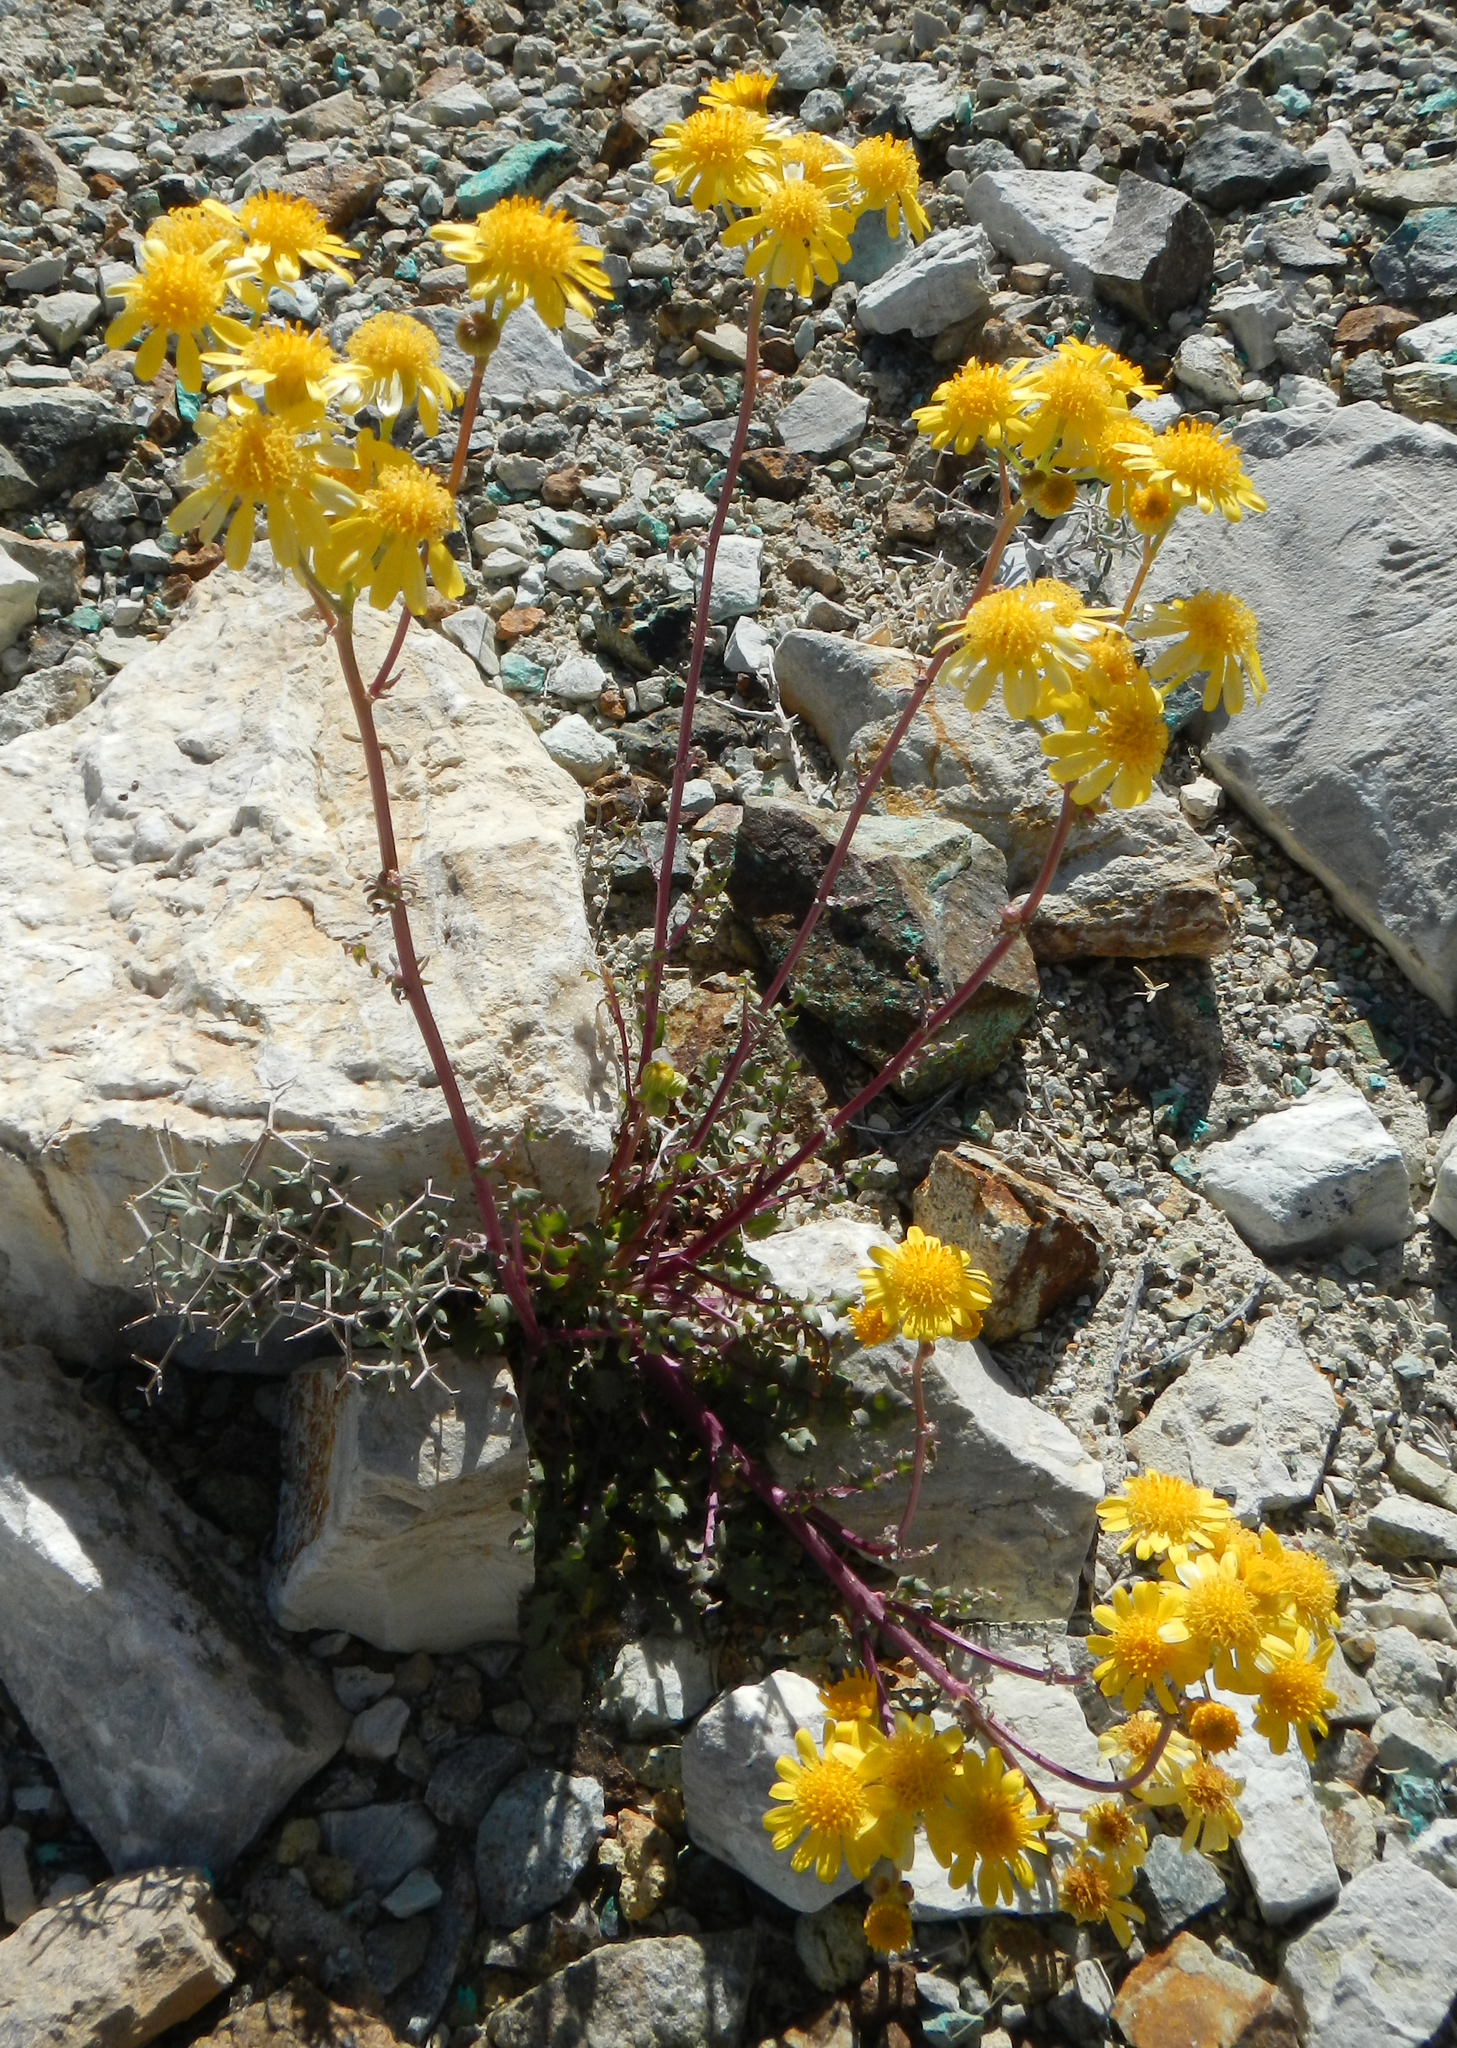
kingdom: Plantae
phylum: Tracheophyta
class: Magnoliopsida
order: Asterales
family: Asteraceae
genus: Packera
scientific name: Packera multilobata
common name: Lobe-leaf groundsel
